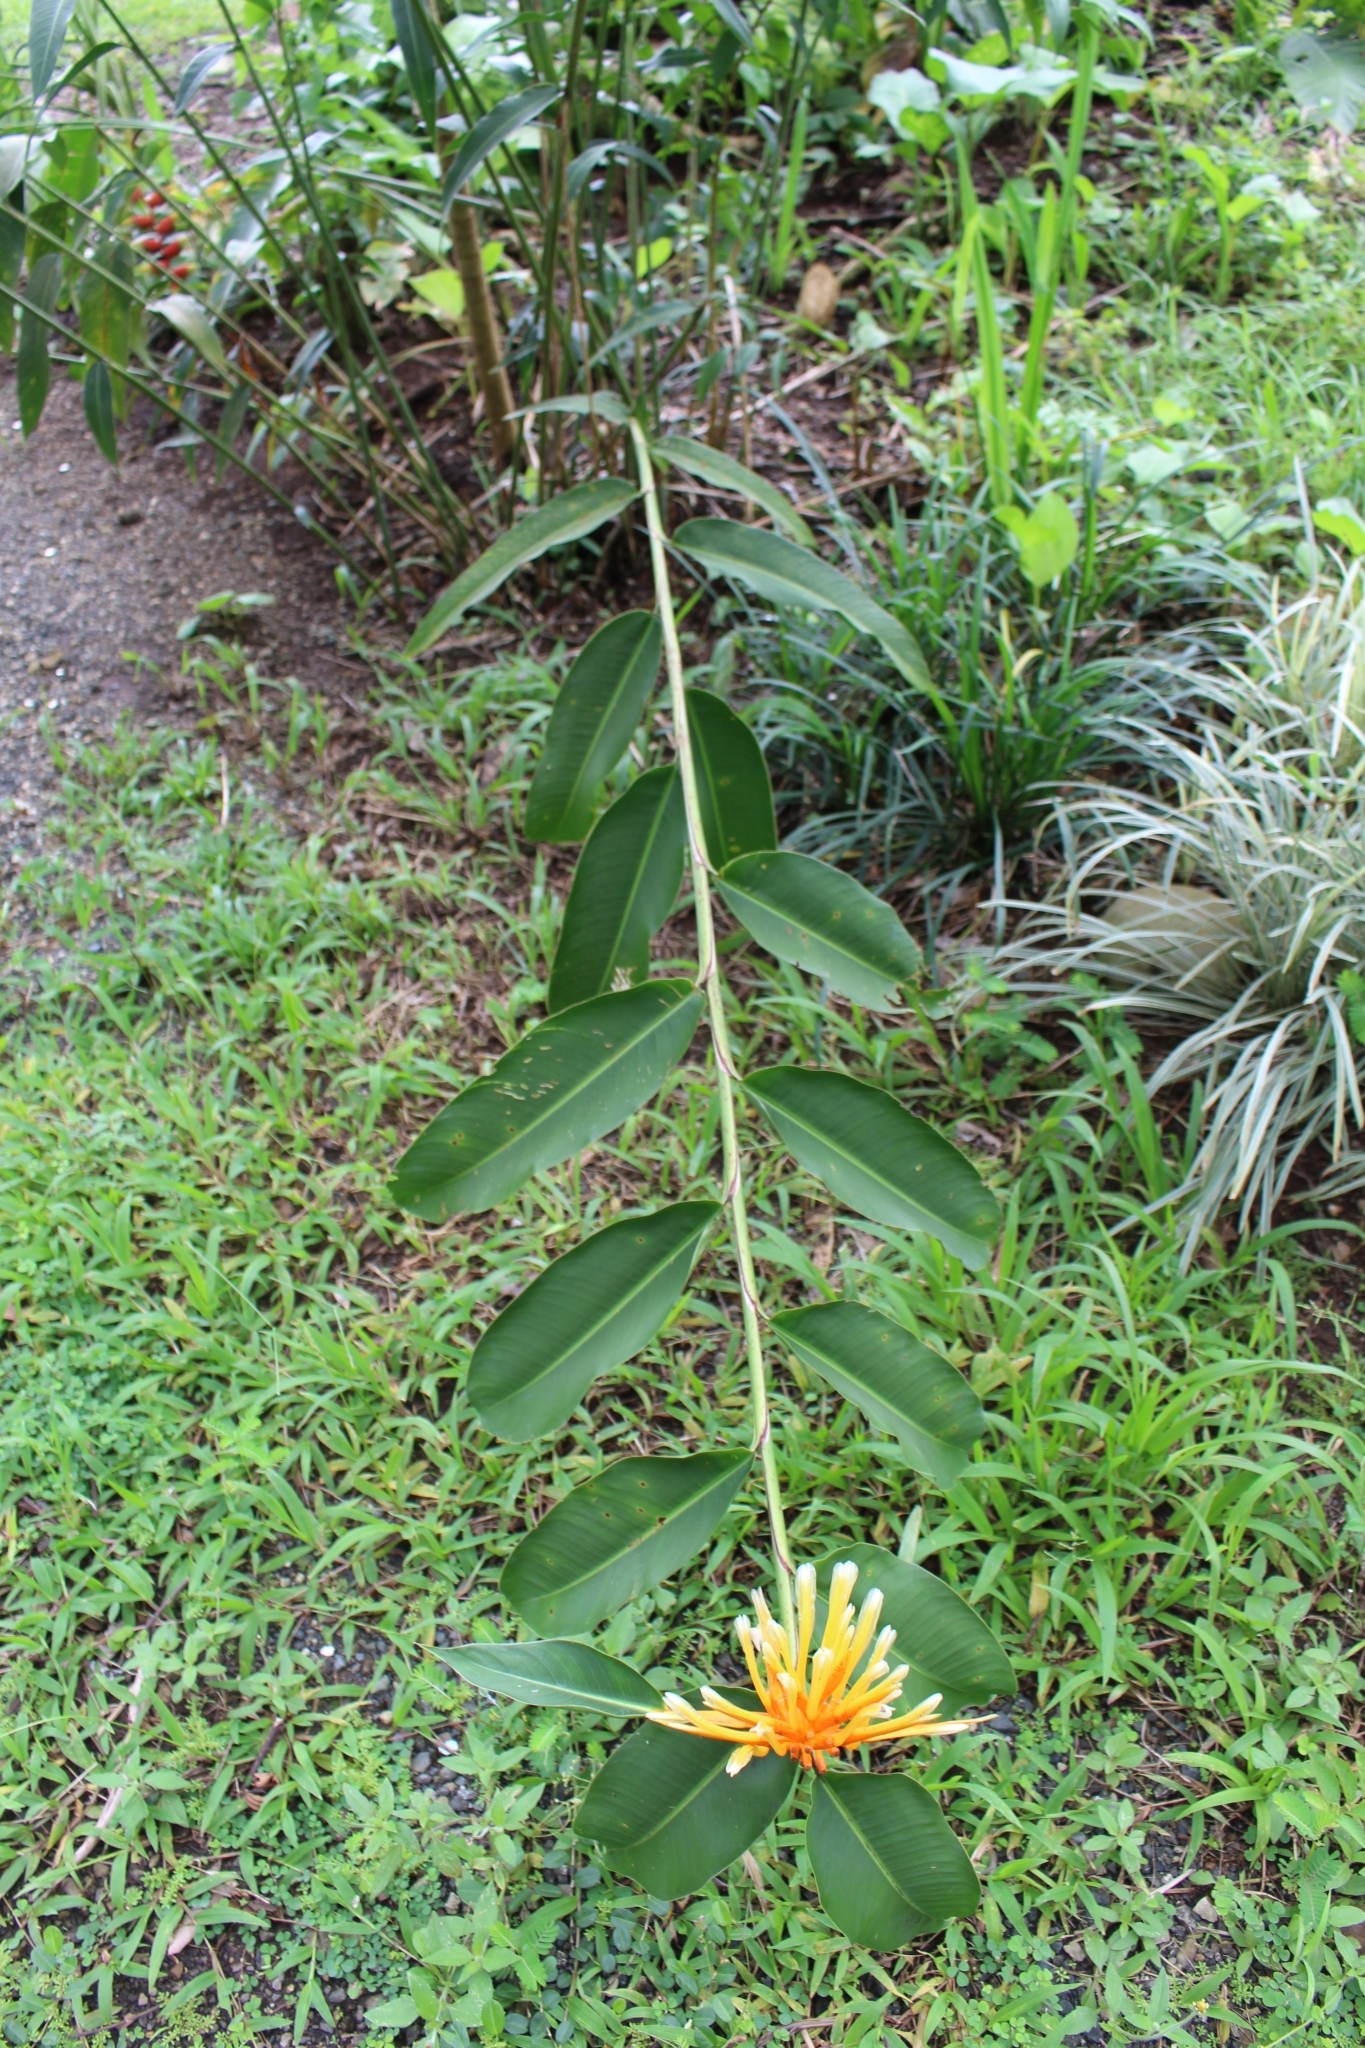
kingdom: Plantae
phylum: Tracheophyta
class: Liliopsida
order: Zingiberales
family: Heliconiaceae
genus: Heliconia
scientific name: Heliconia longiflora
